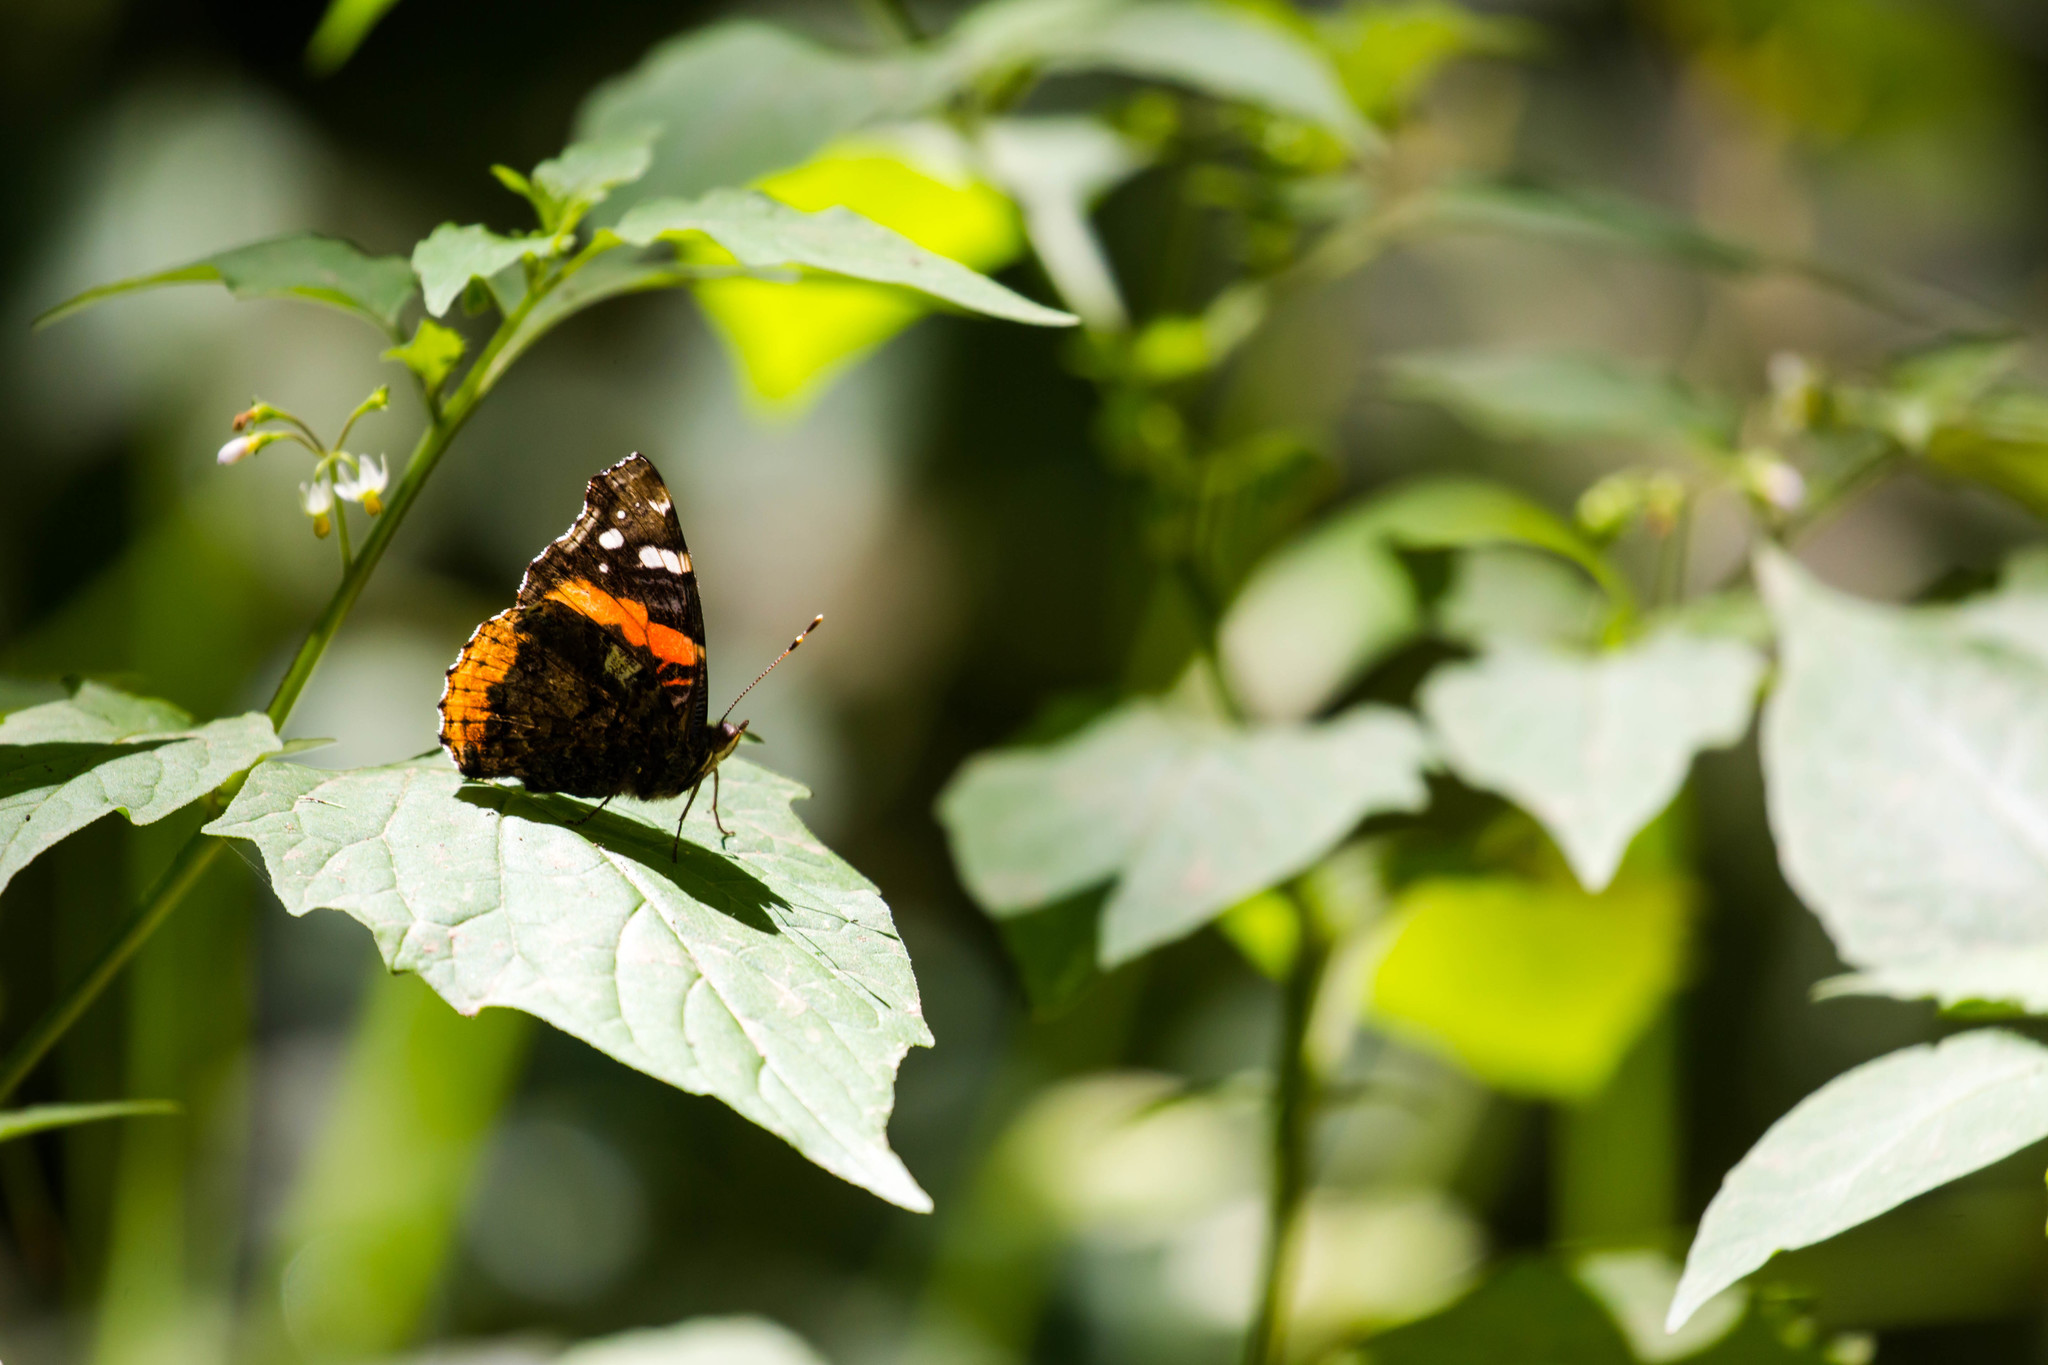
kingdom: Animalia
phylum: Arthropoda
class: Insecta
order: Lepidoptera
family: Nymphalidae
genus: Vanessa
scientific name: Vanessa atalanta
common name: Red admiral
